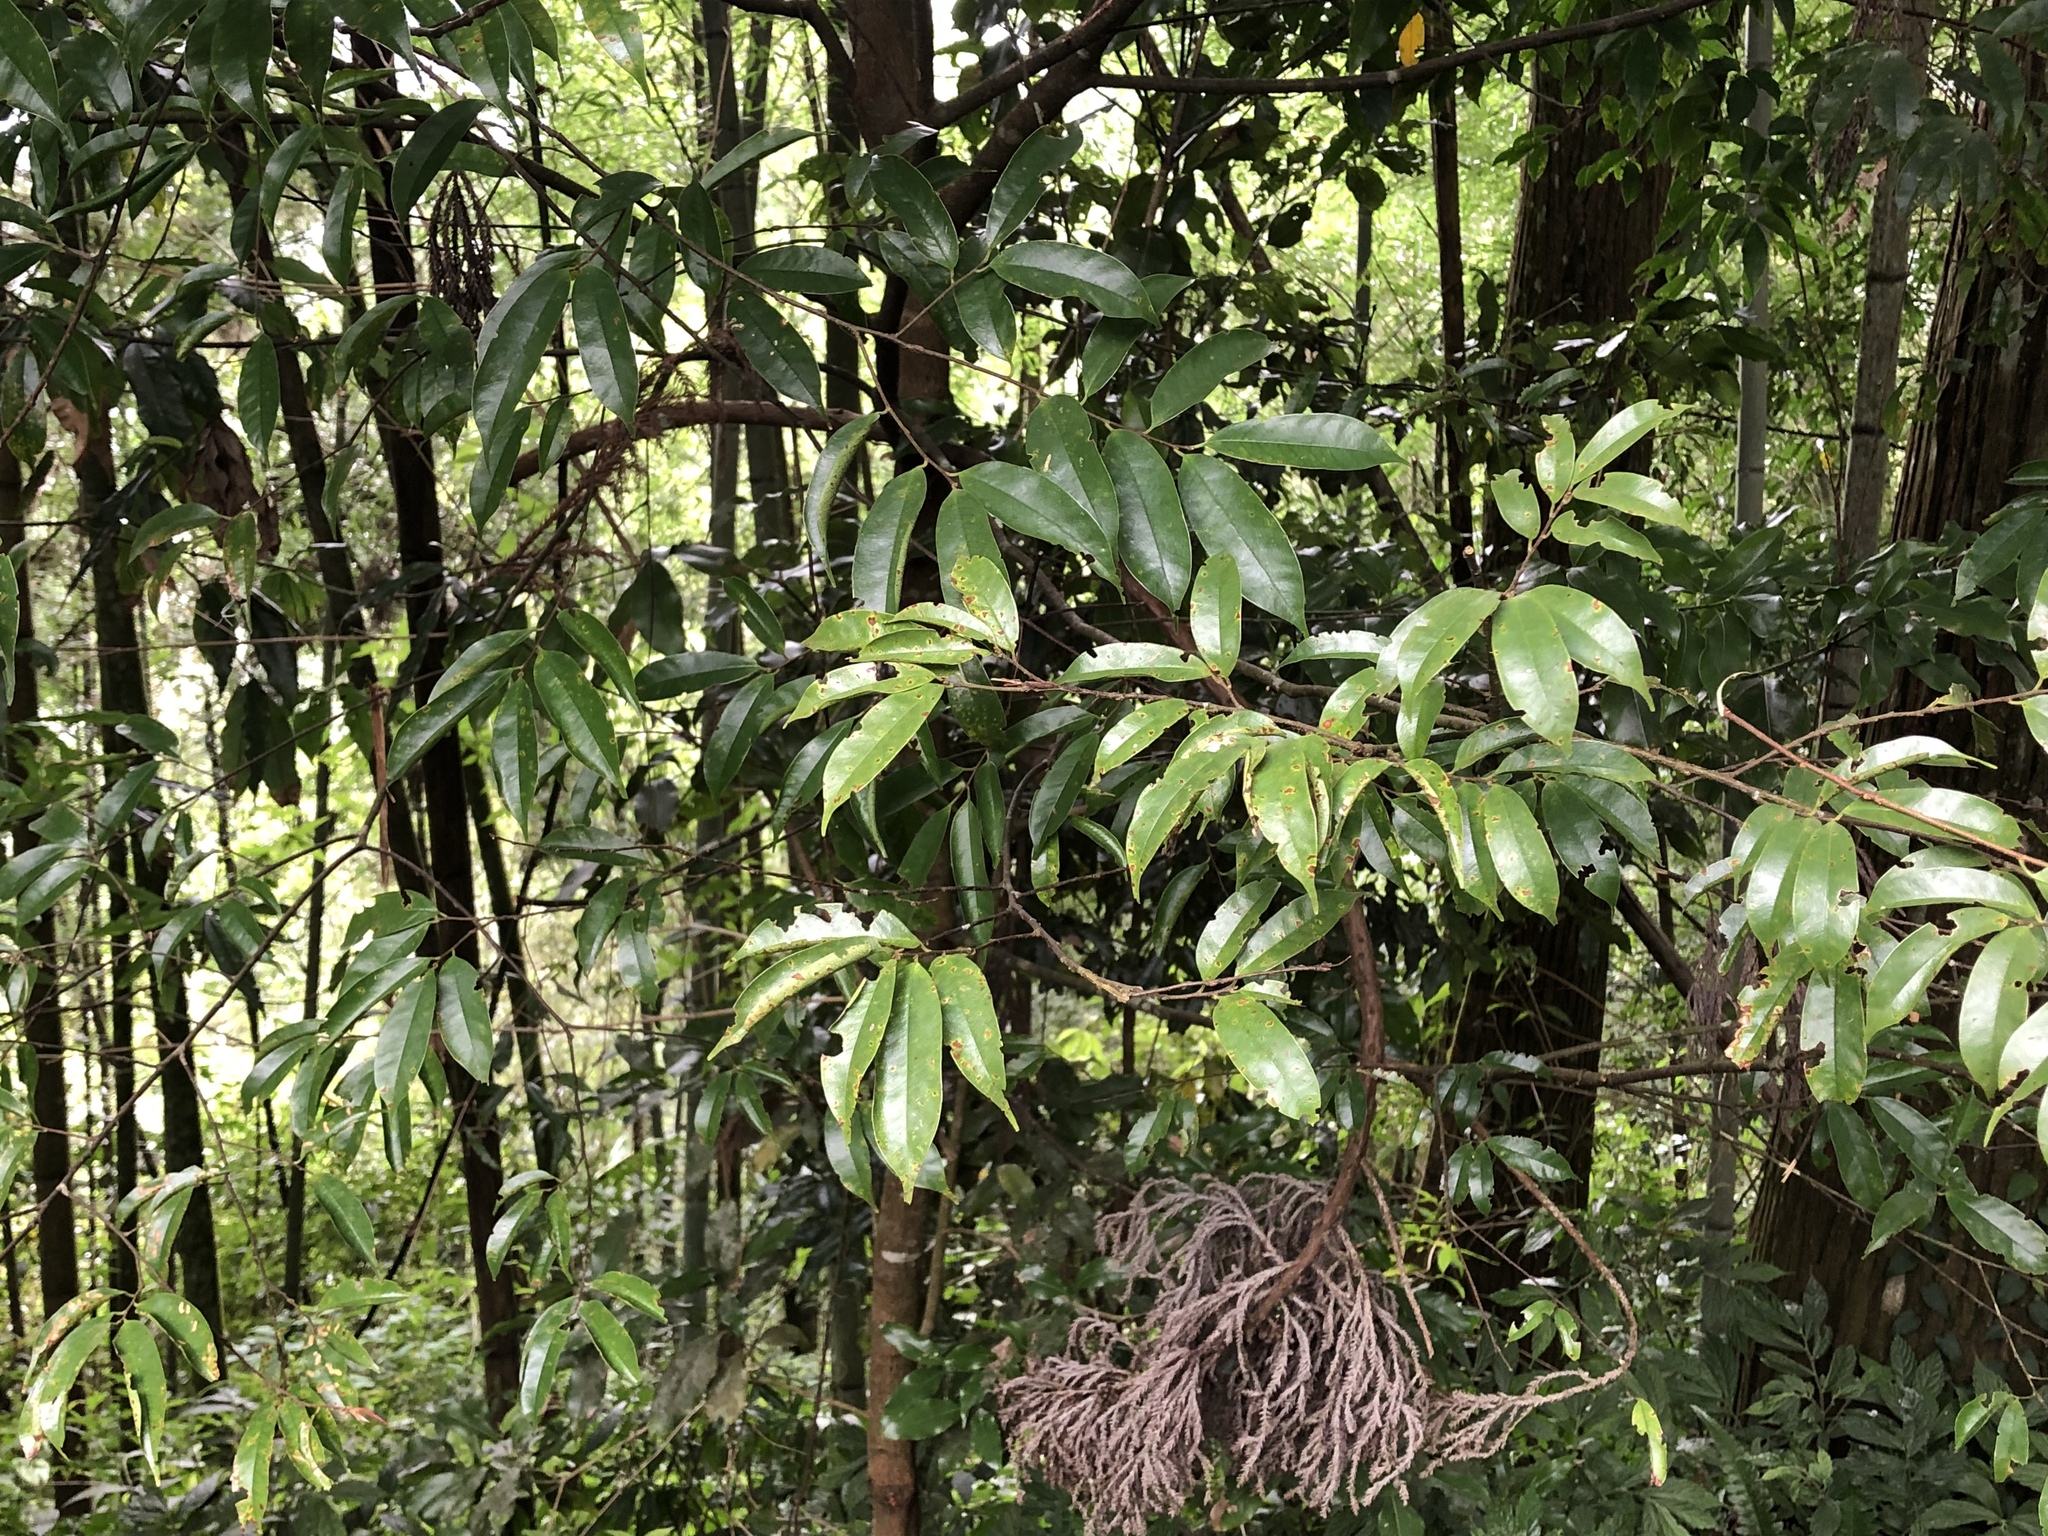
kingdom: Plantae
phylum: Tracheophyta
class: Magnoliopsida
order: Rosales
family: Rosaceae
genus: Prunus
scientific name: Prunus phaeosticta
